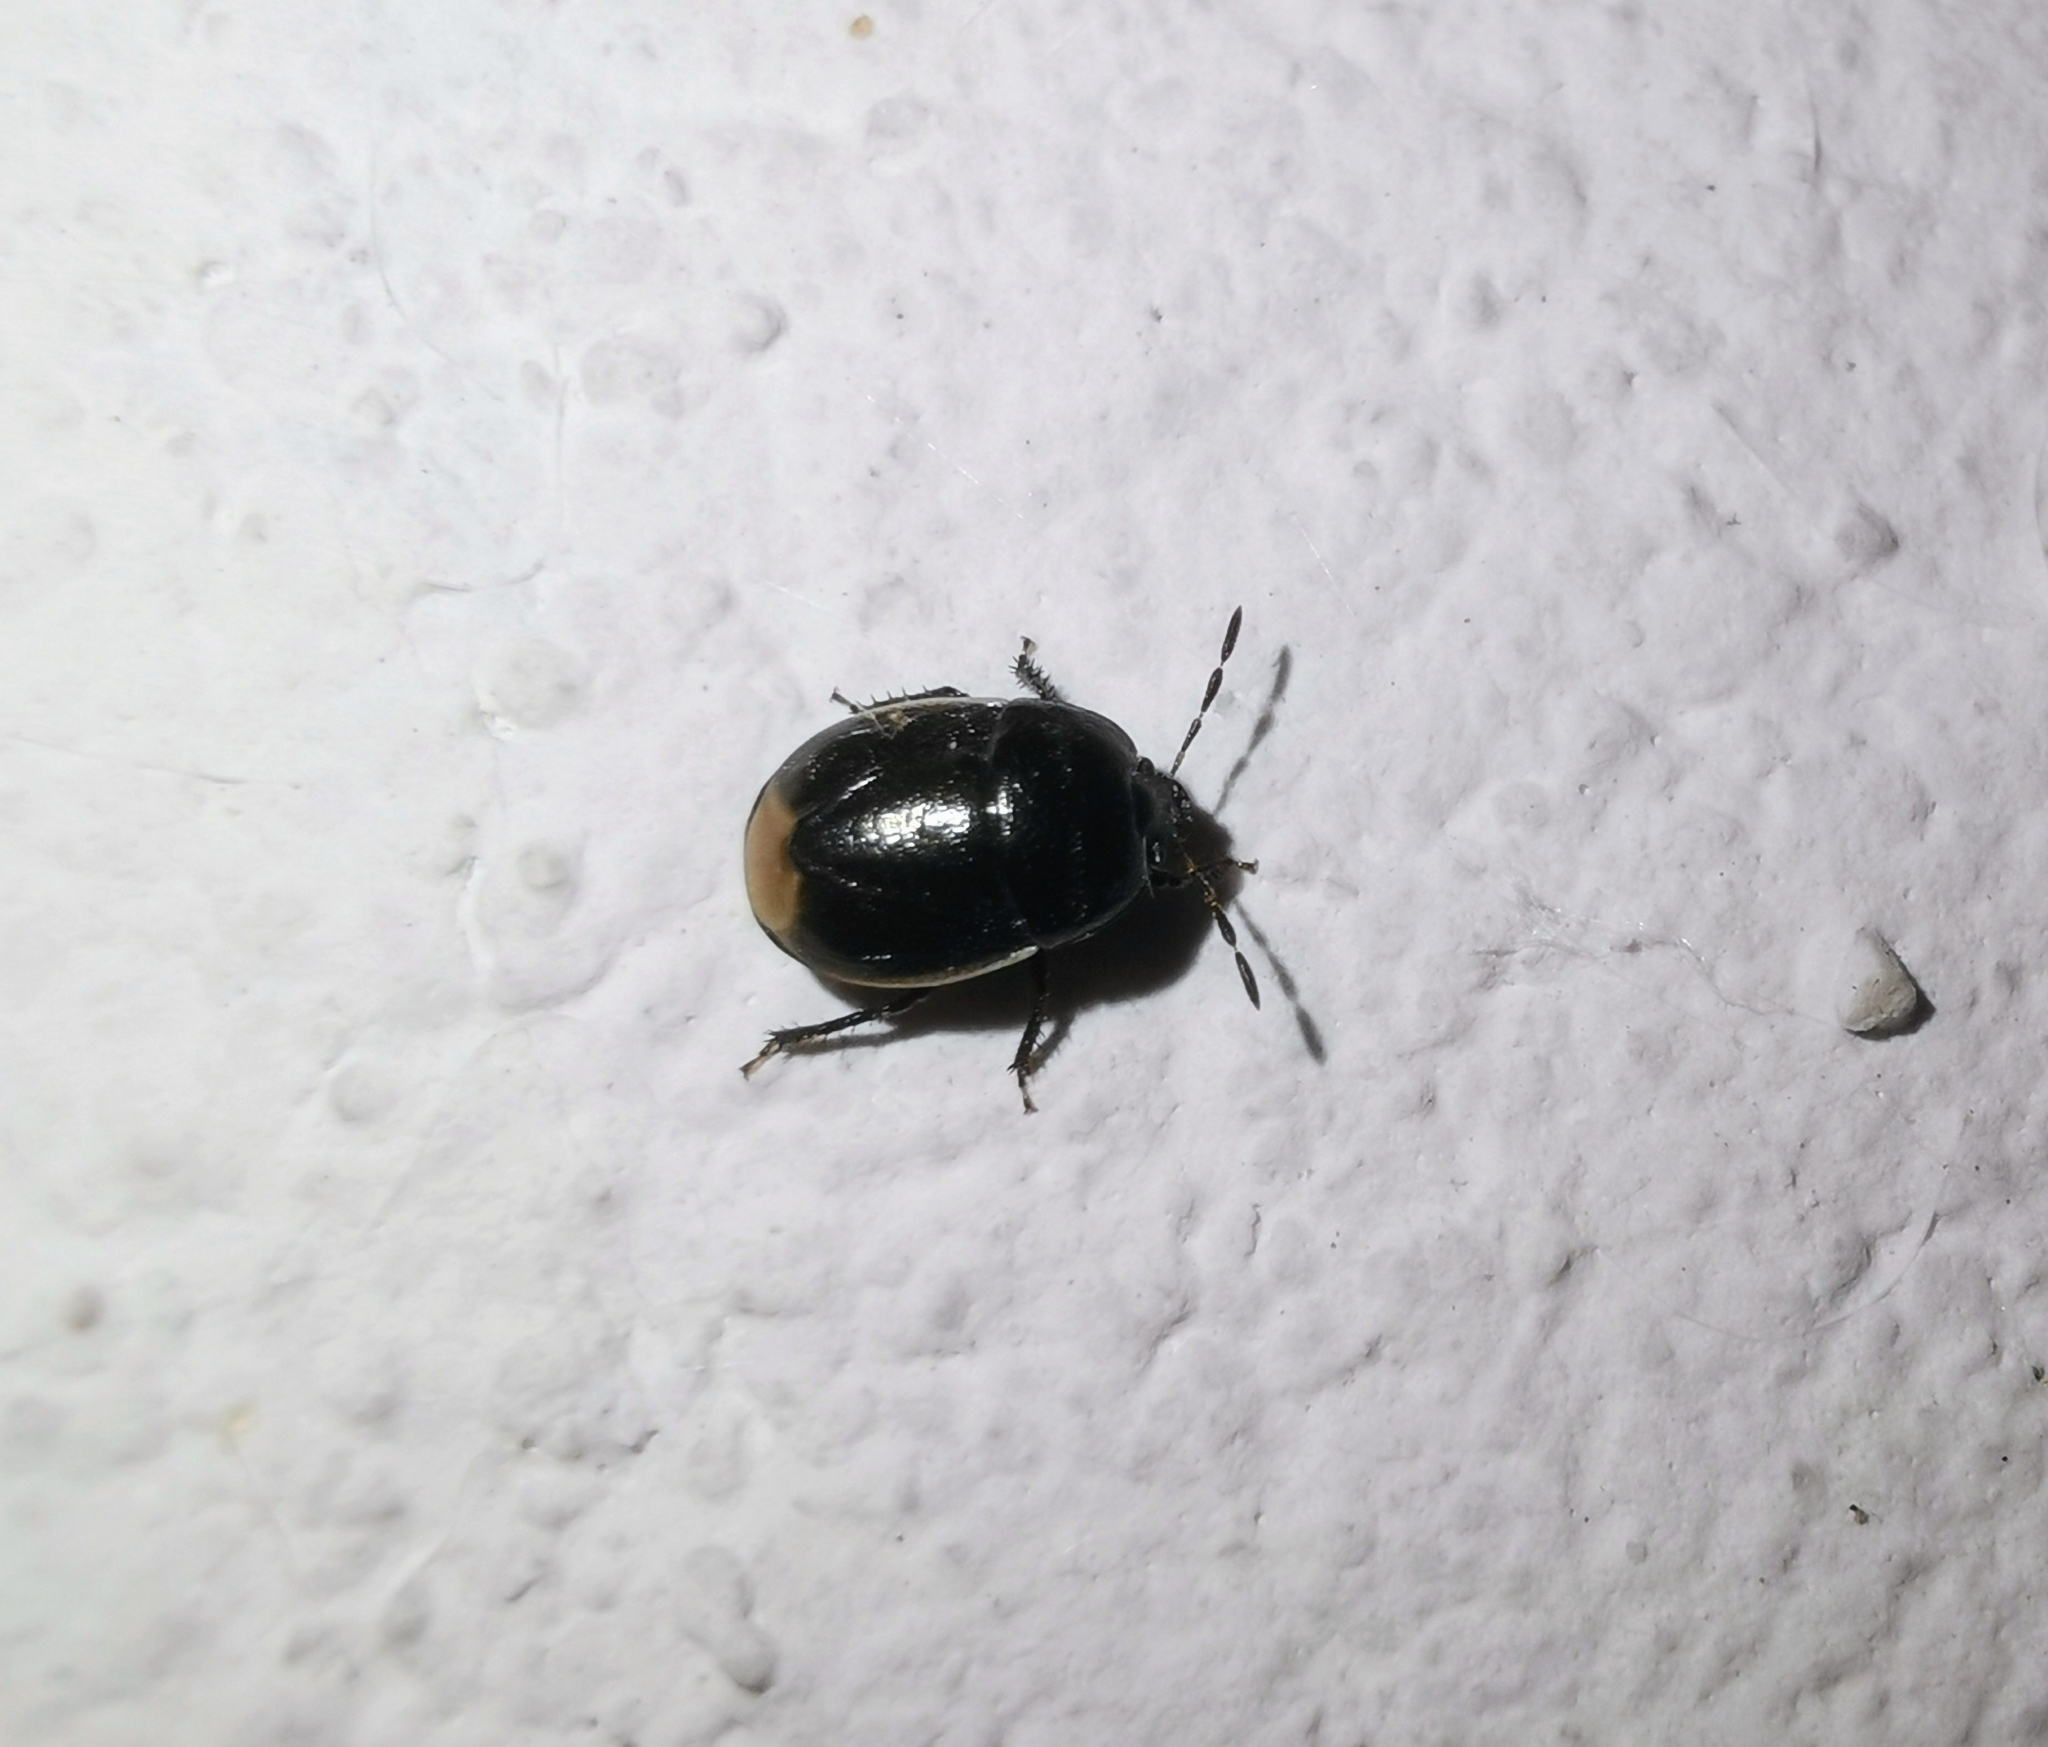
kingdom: Animalia
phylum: Arthropoda
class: Insecta
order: Hemiptera
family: Cydnidae
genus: Legnotus
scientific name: Legnotus limbosus
